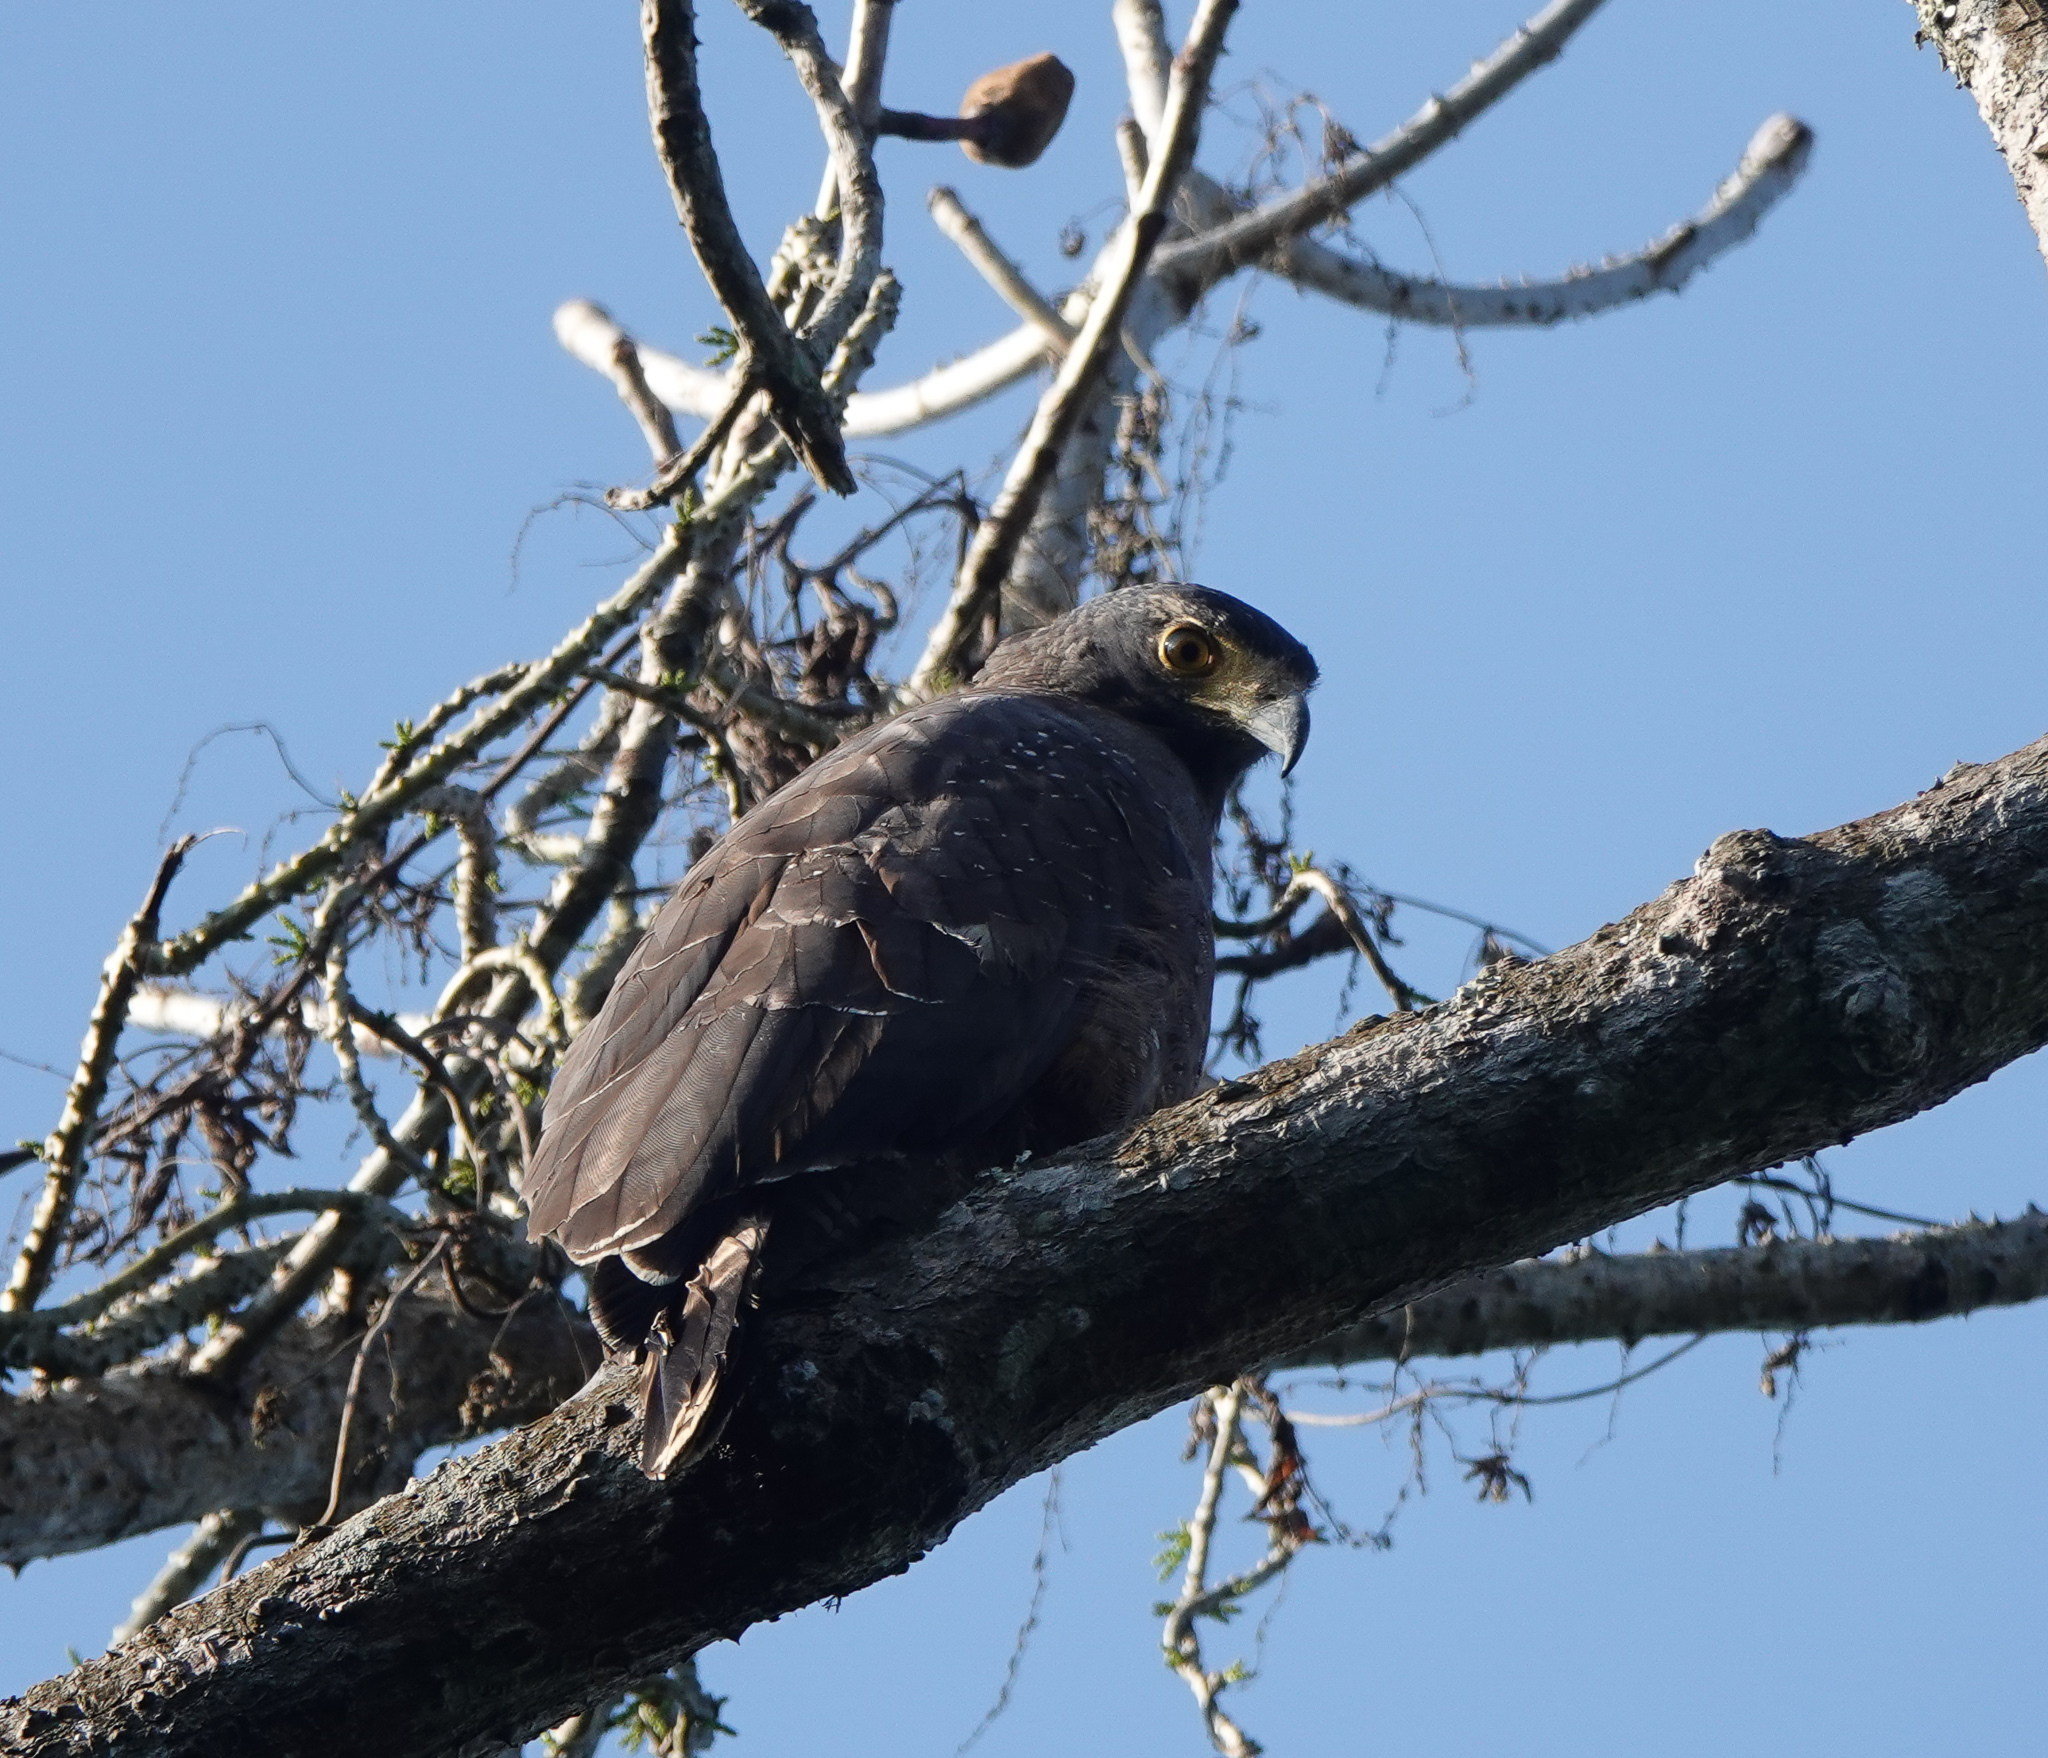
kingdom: Animalia
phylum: Chordata
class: Aves
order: Accipitriformes
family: Accipitridae
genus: Spilornis
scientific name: Spilornis cheela
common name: Crested serpent eagle
